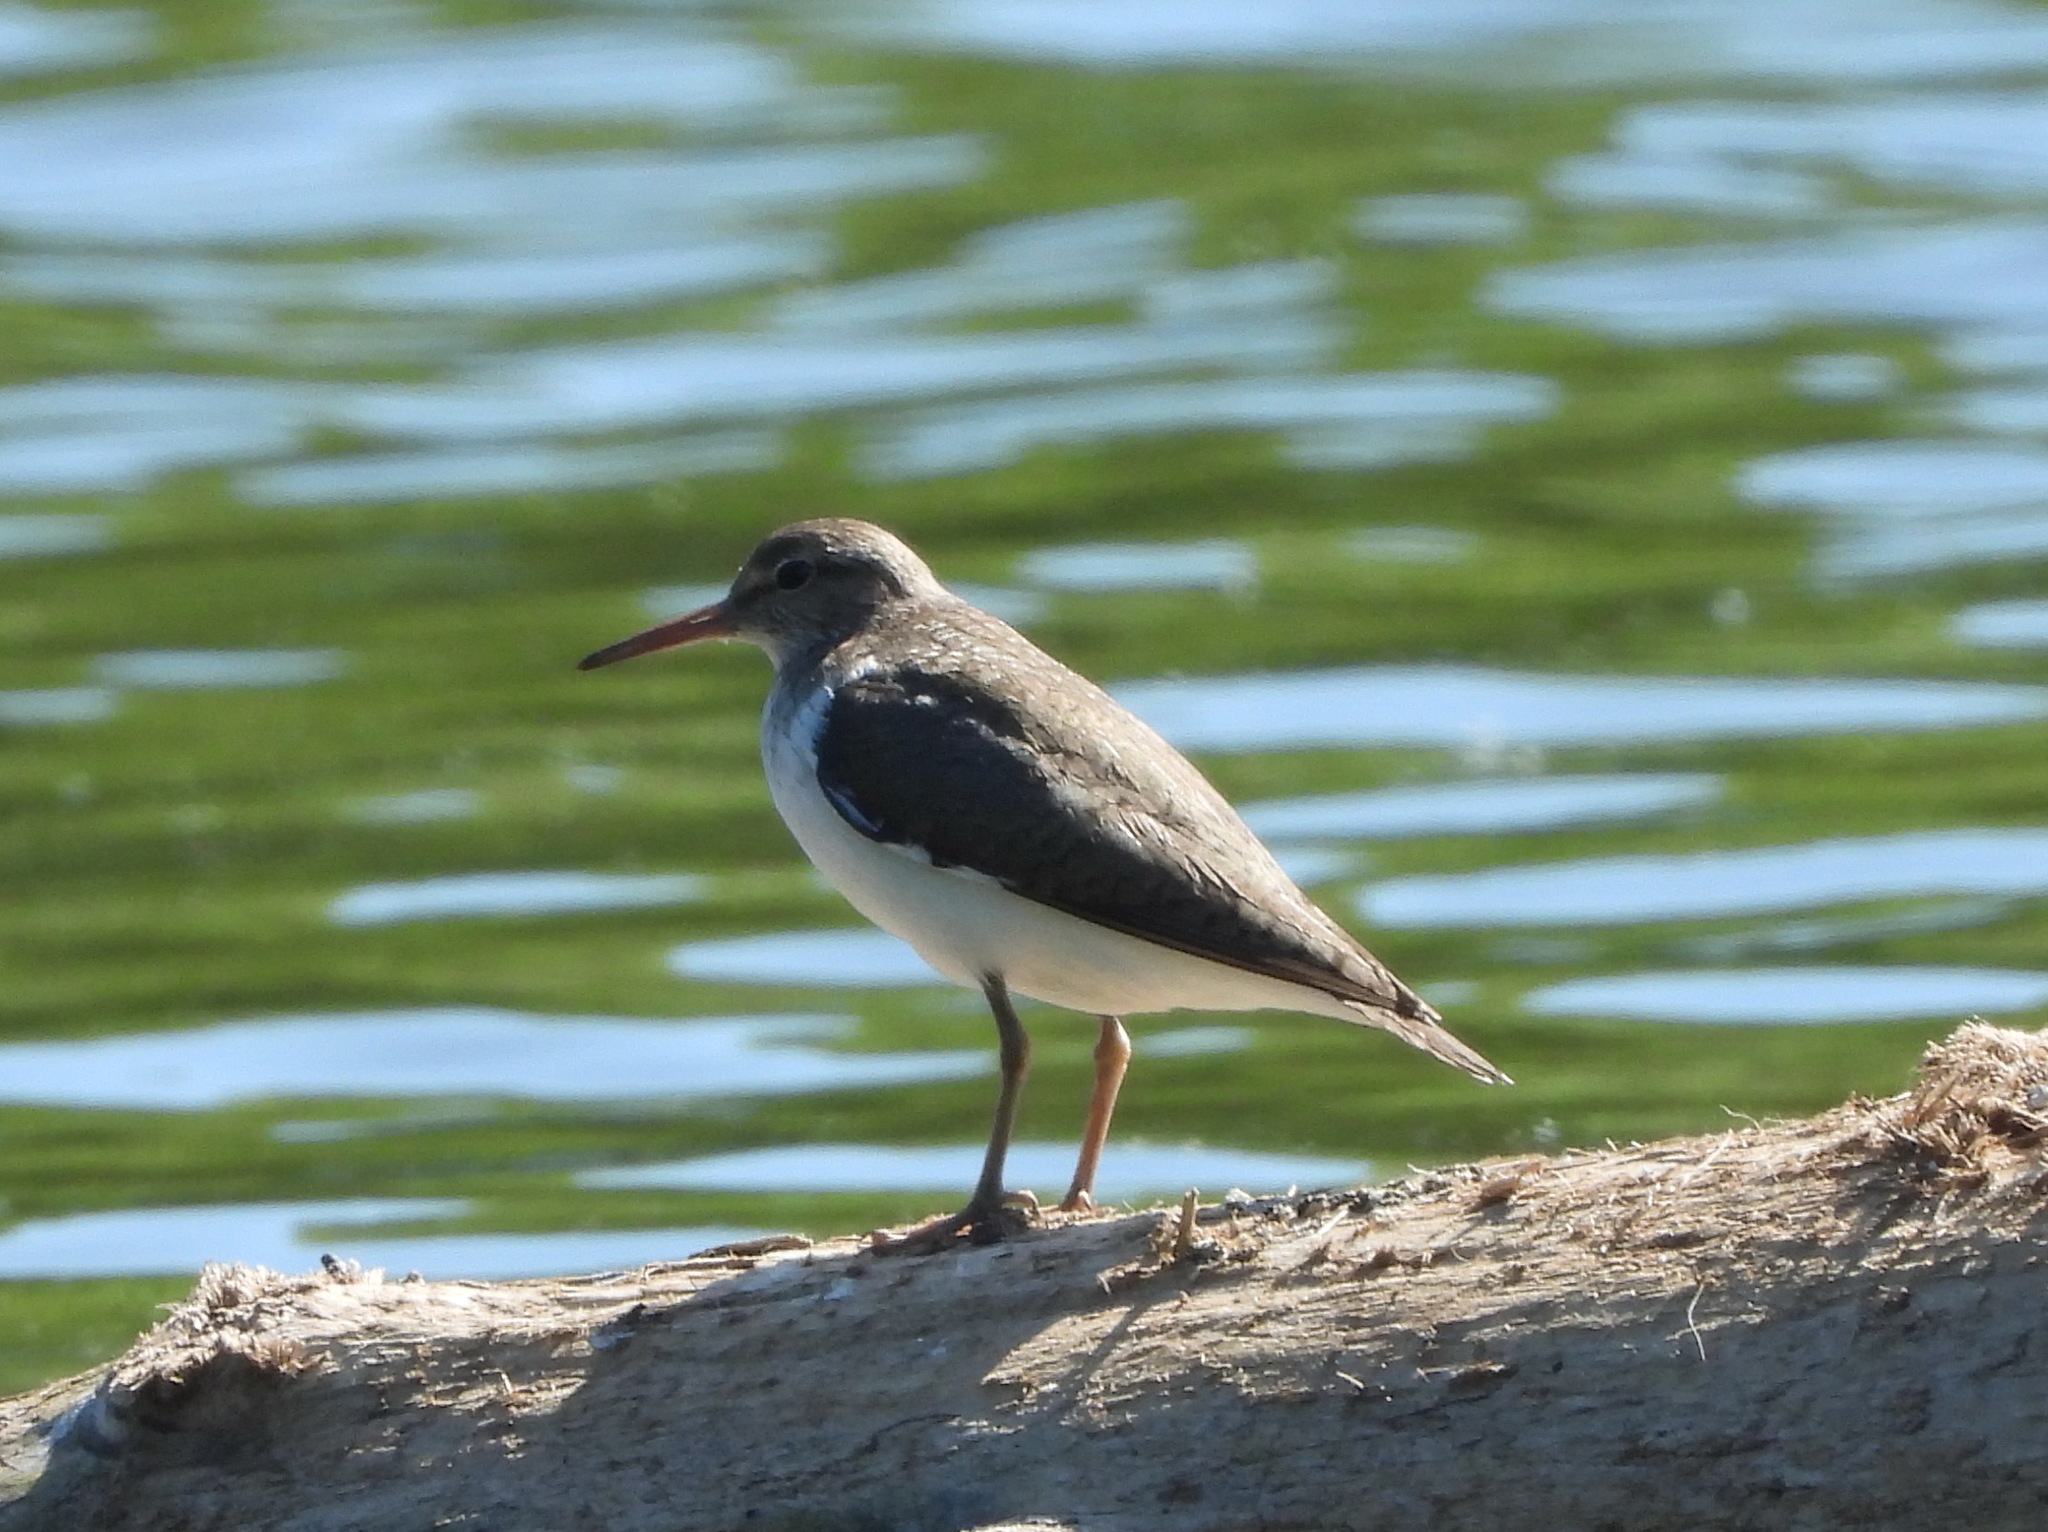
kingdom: Animalia
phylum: Chordata
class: Aves
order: Charadriiformes
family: Scolopacidae
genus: Actitis
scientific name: Actitis hypoleucos
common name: Common sandpiper
